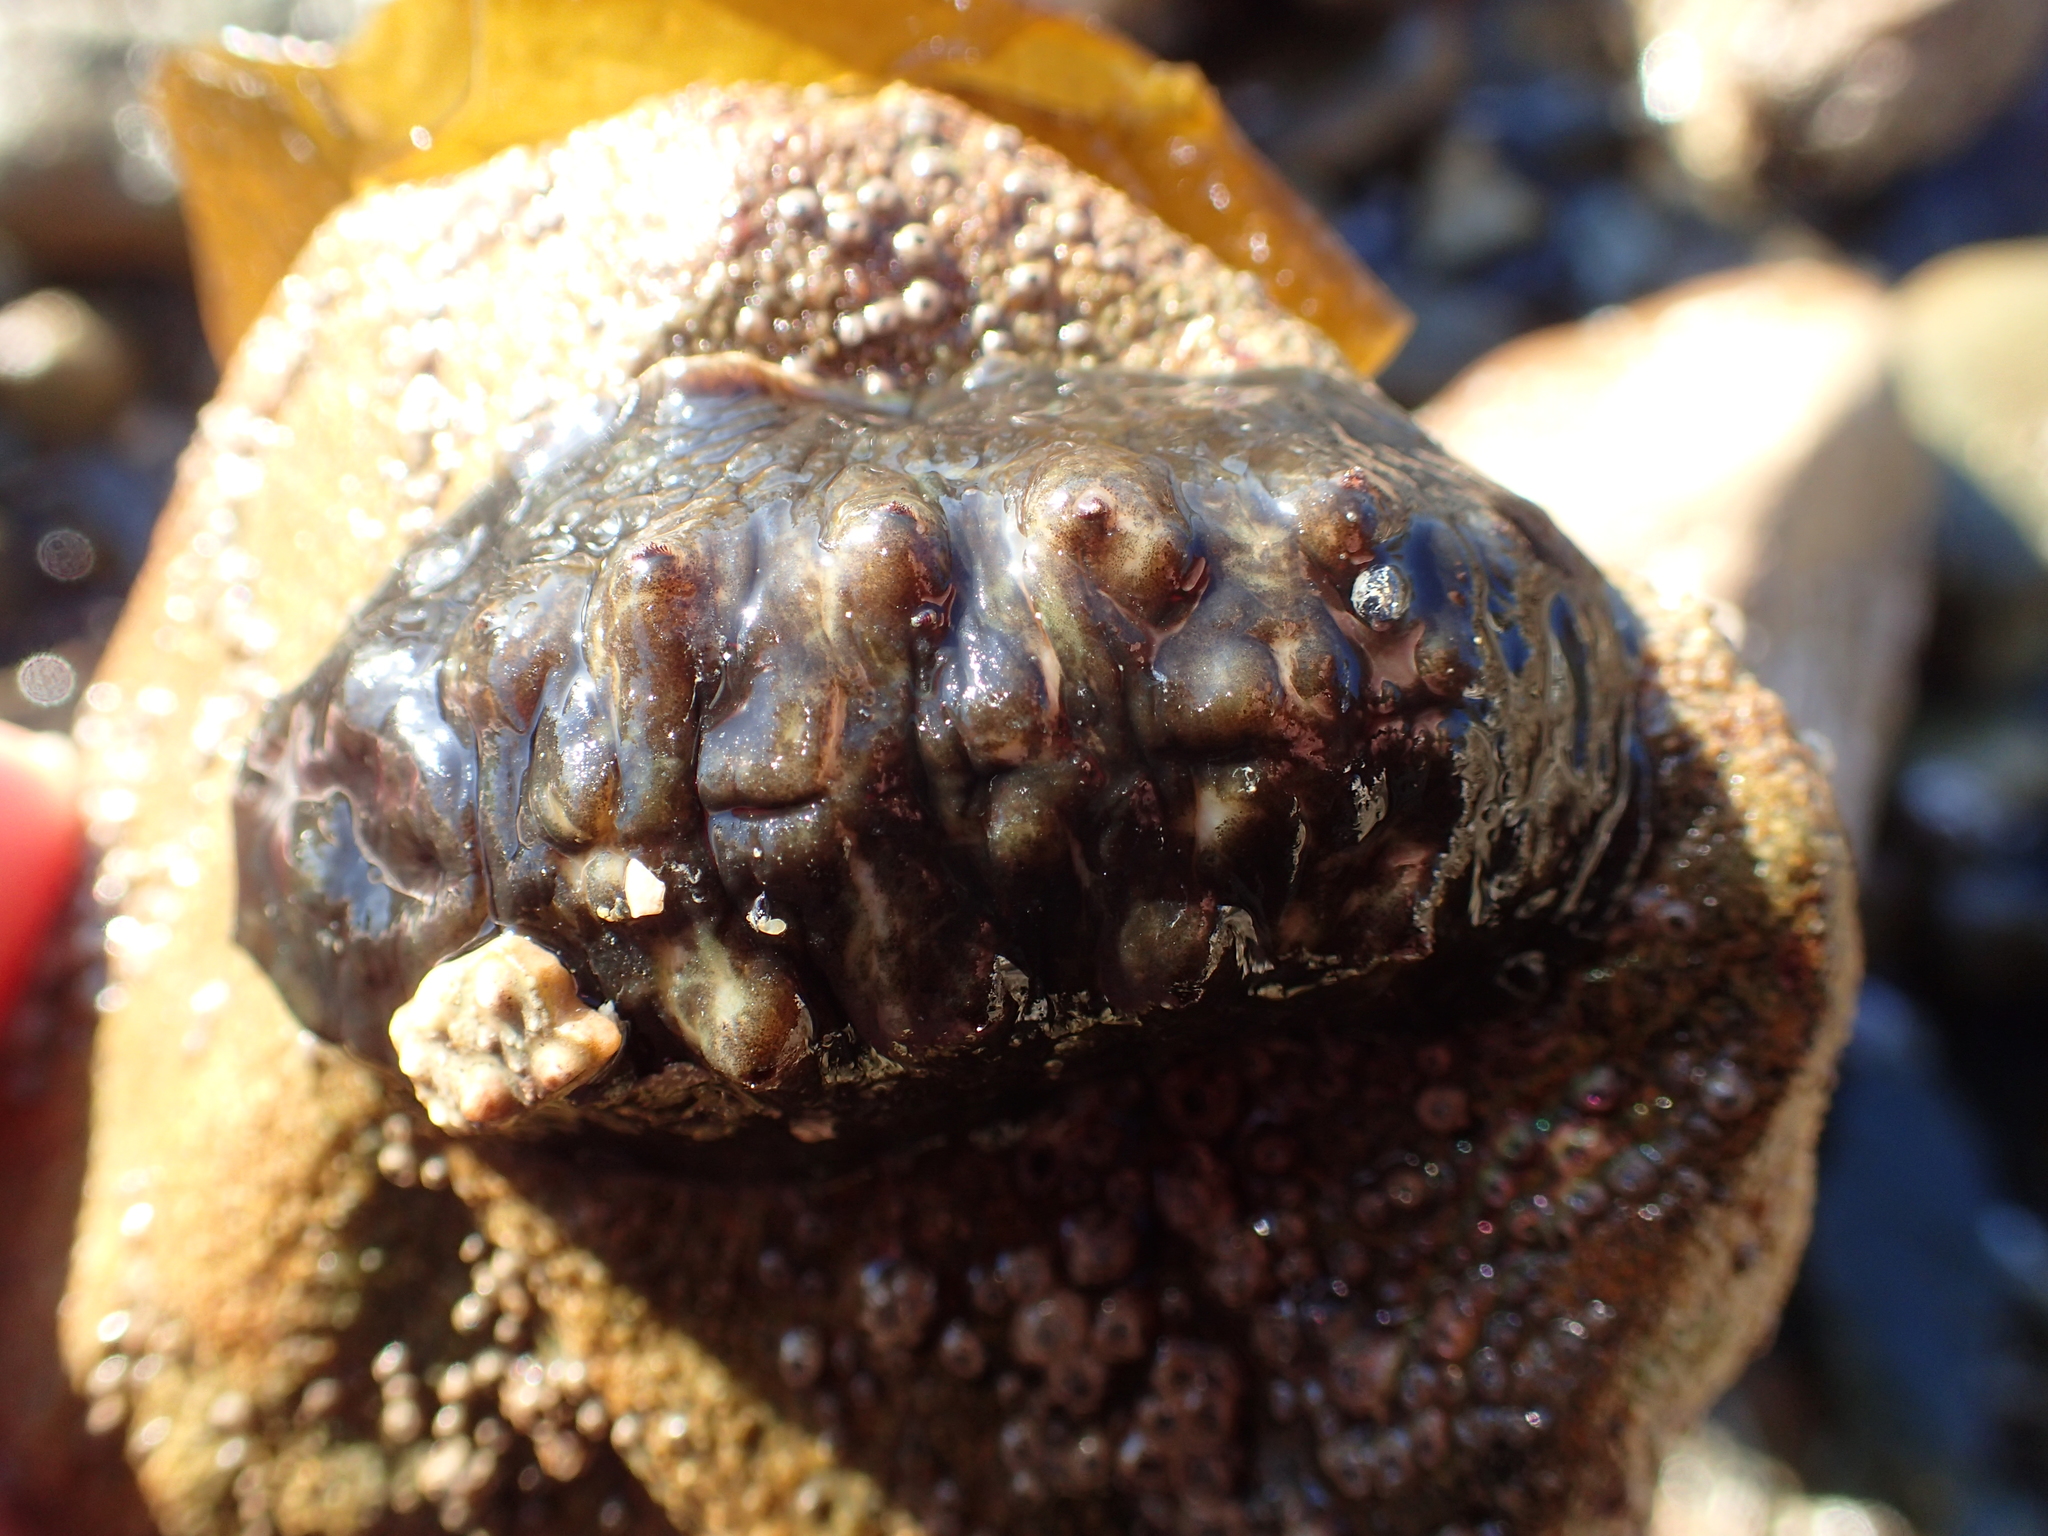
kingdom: Animalia
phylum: Mollusca
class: Polyplacophora
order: Chitonida
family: Acanthochitonidae
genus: Cryptoconchus
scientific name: Cryptoconchus porosus
